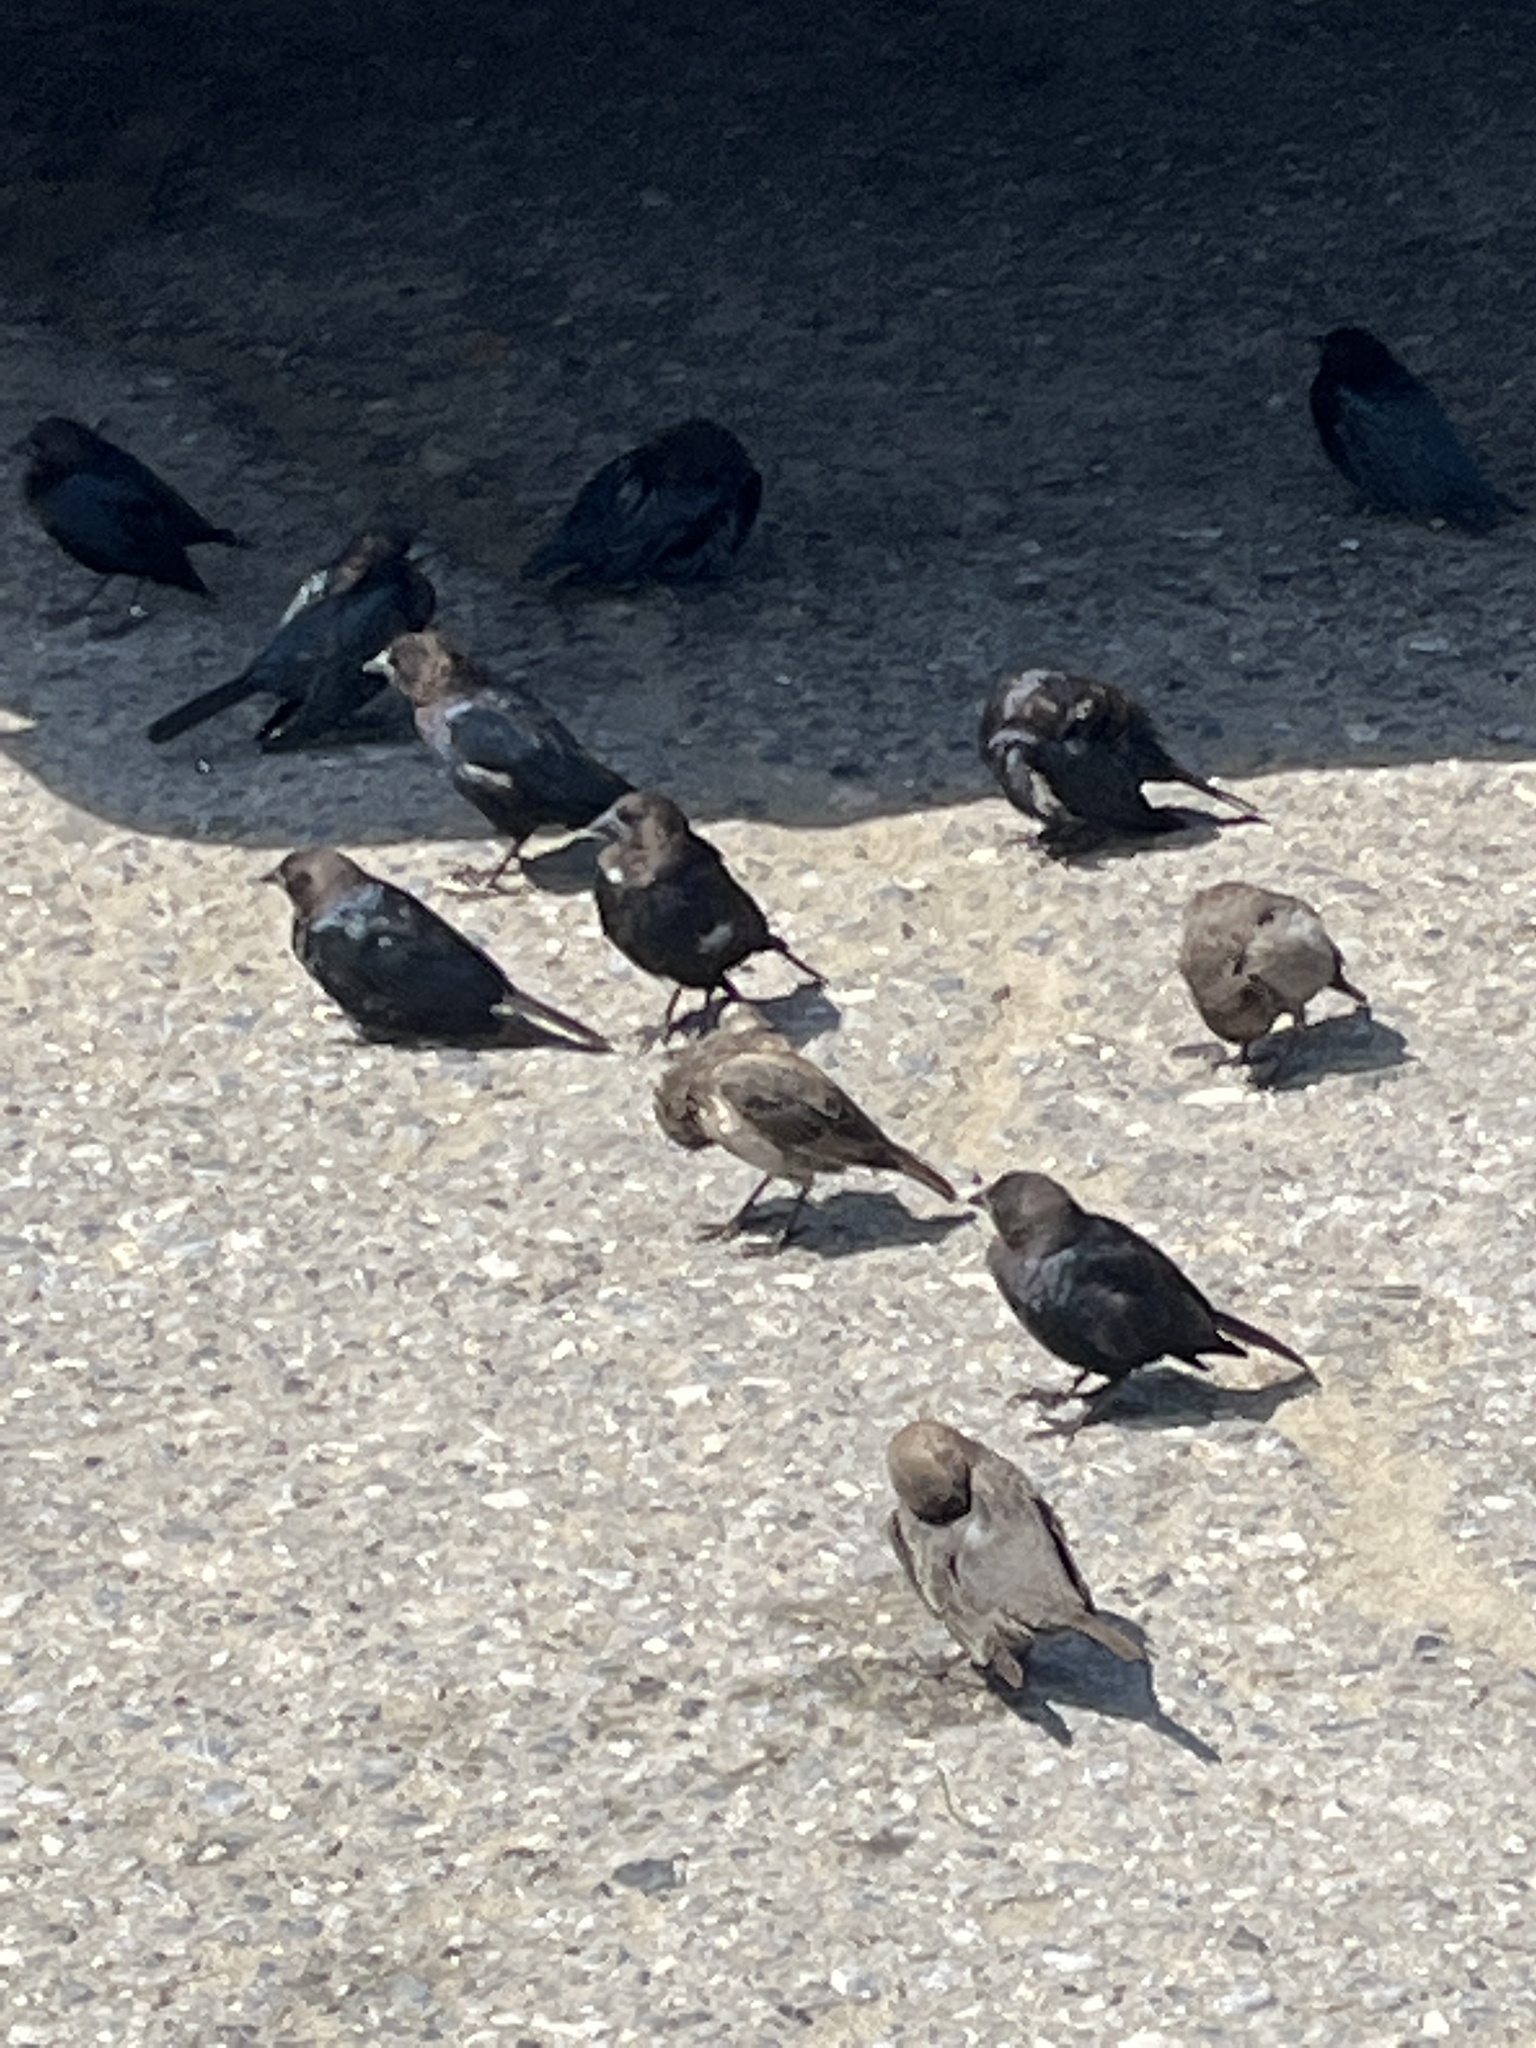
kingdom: Animalia
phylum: Chordata
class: Aves
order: Passeriformes
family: Icteridae
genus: Molothrus
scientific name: Molothrus ater
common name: Brown-headed cowbird
